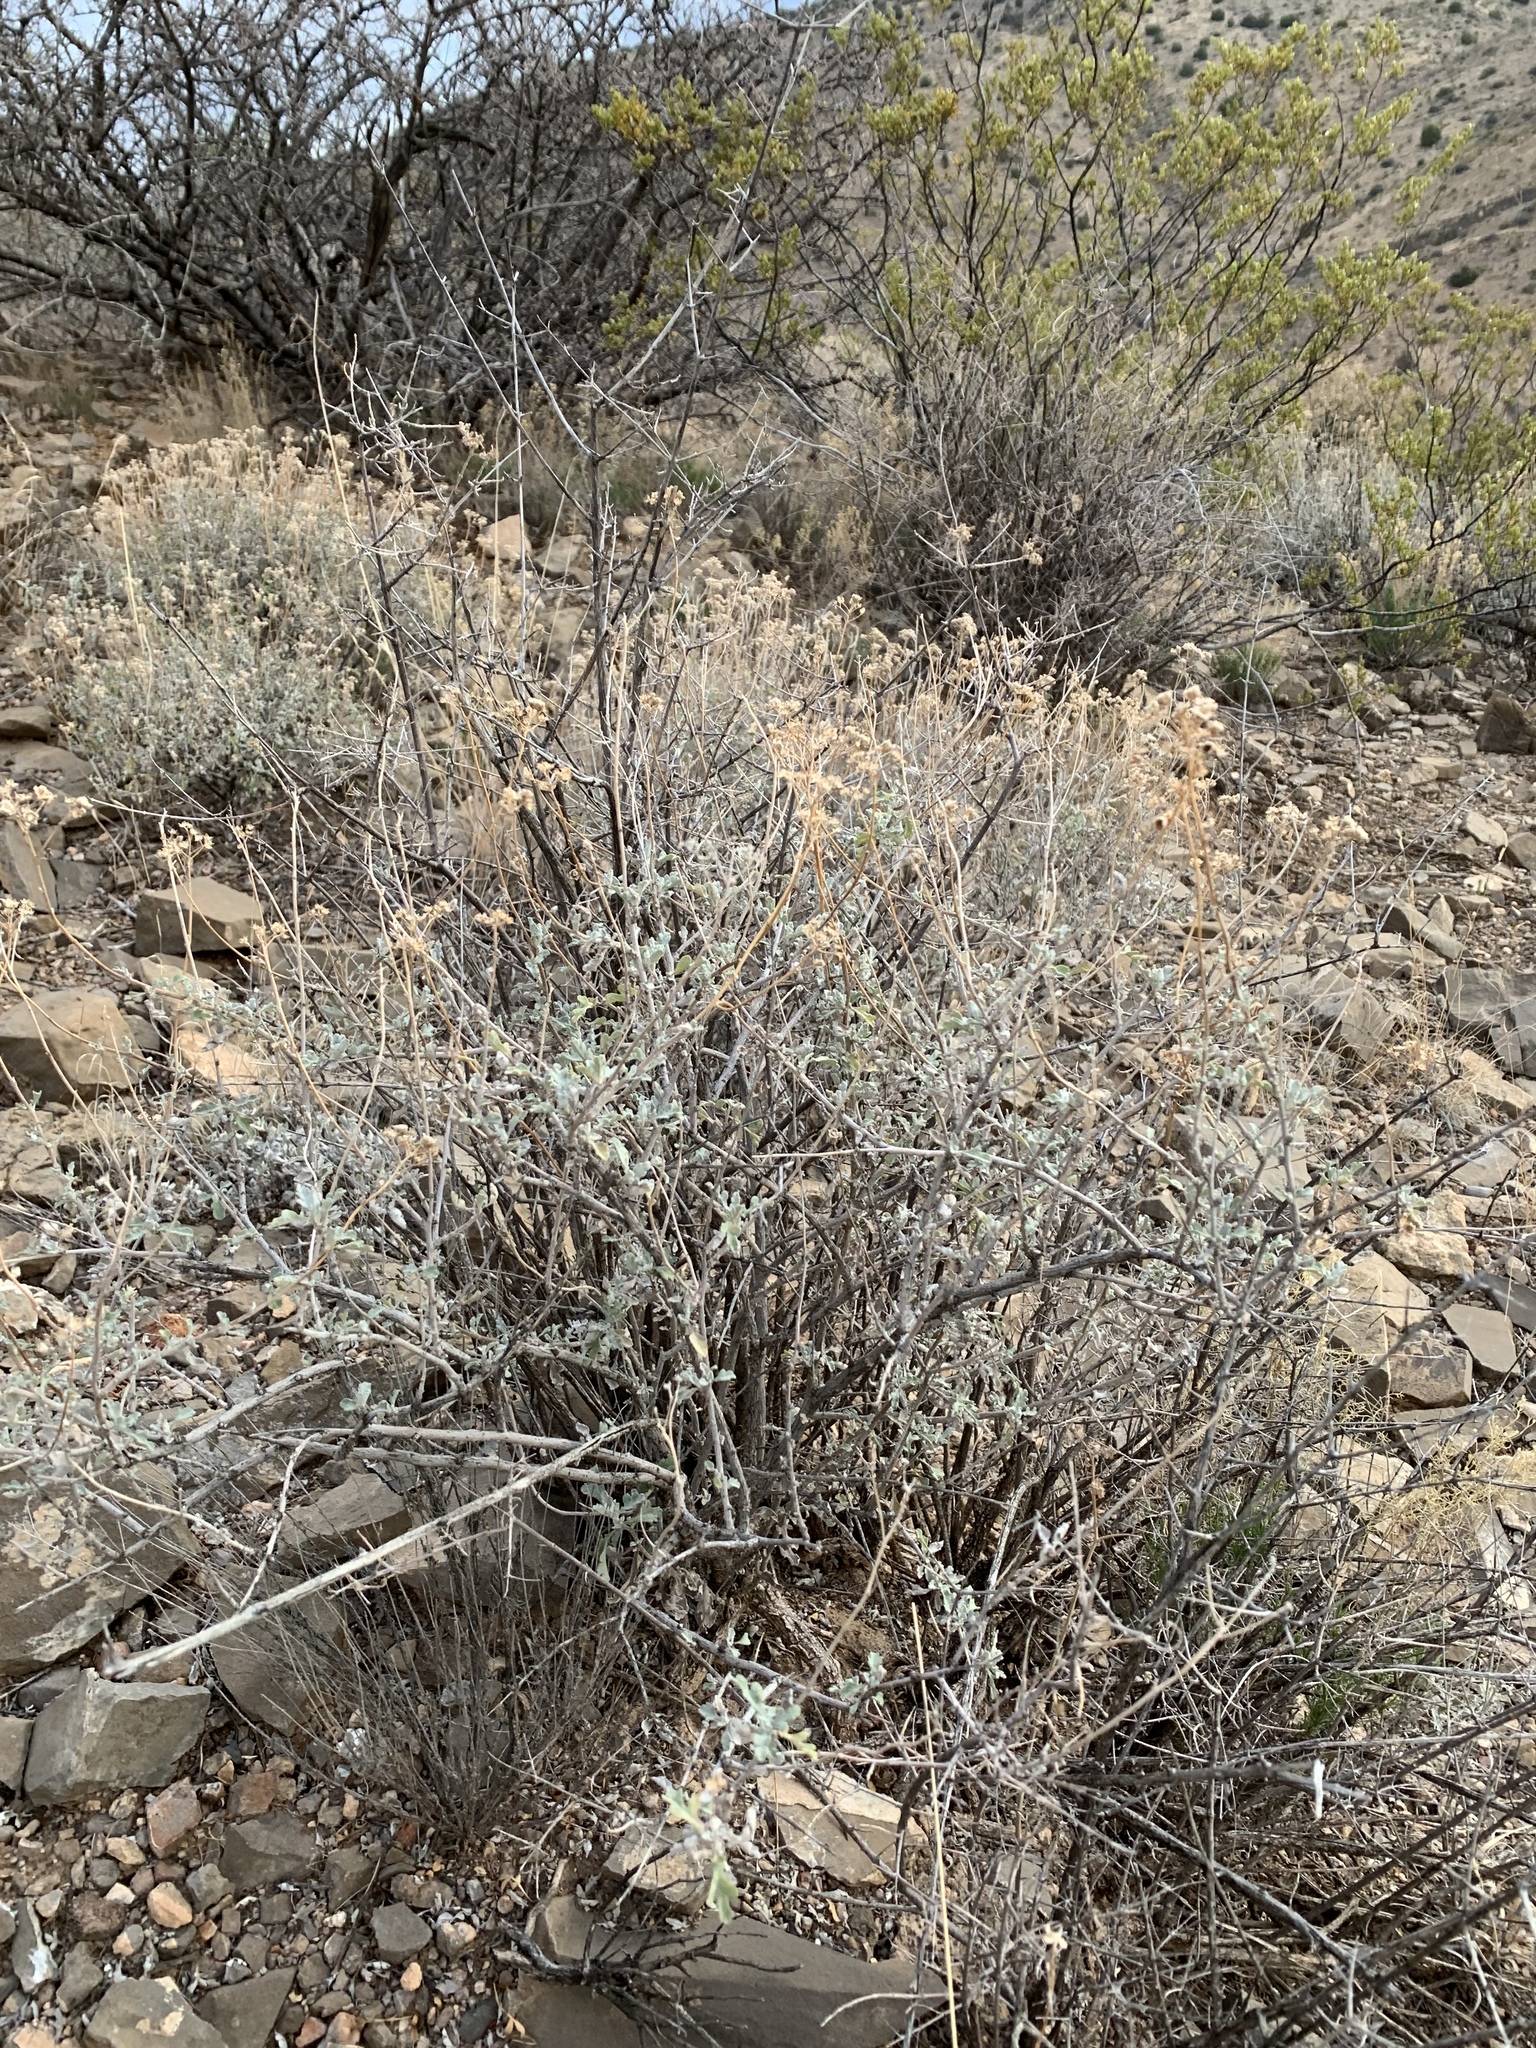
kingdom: Plantae
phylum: Tracheophyta
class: Magnoliopsida
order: Asterales
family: Asteraceae
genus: Parthenium
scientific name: Parthenium incanum
